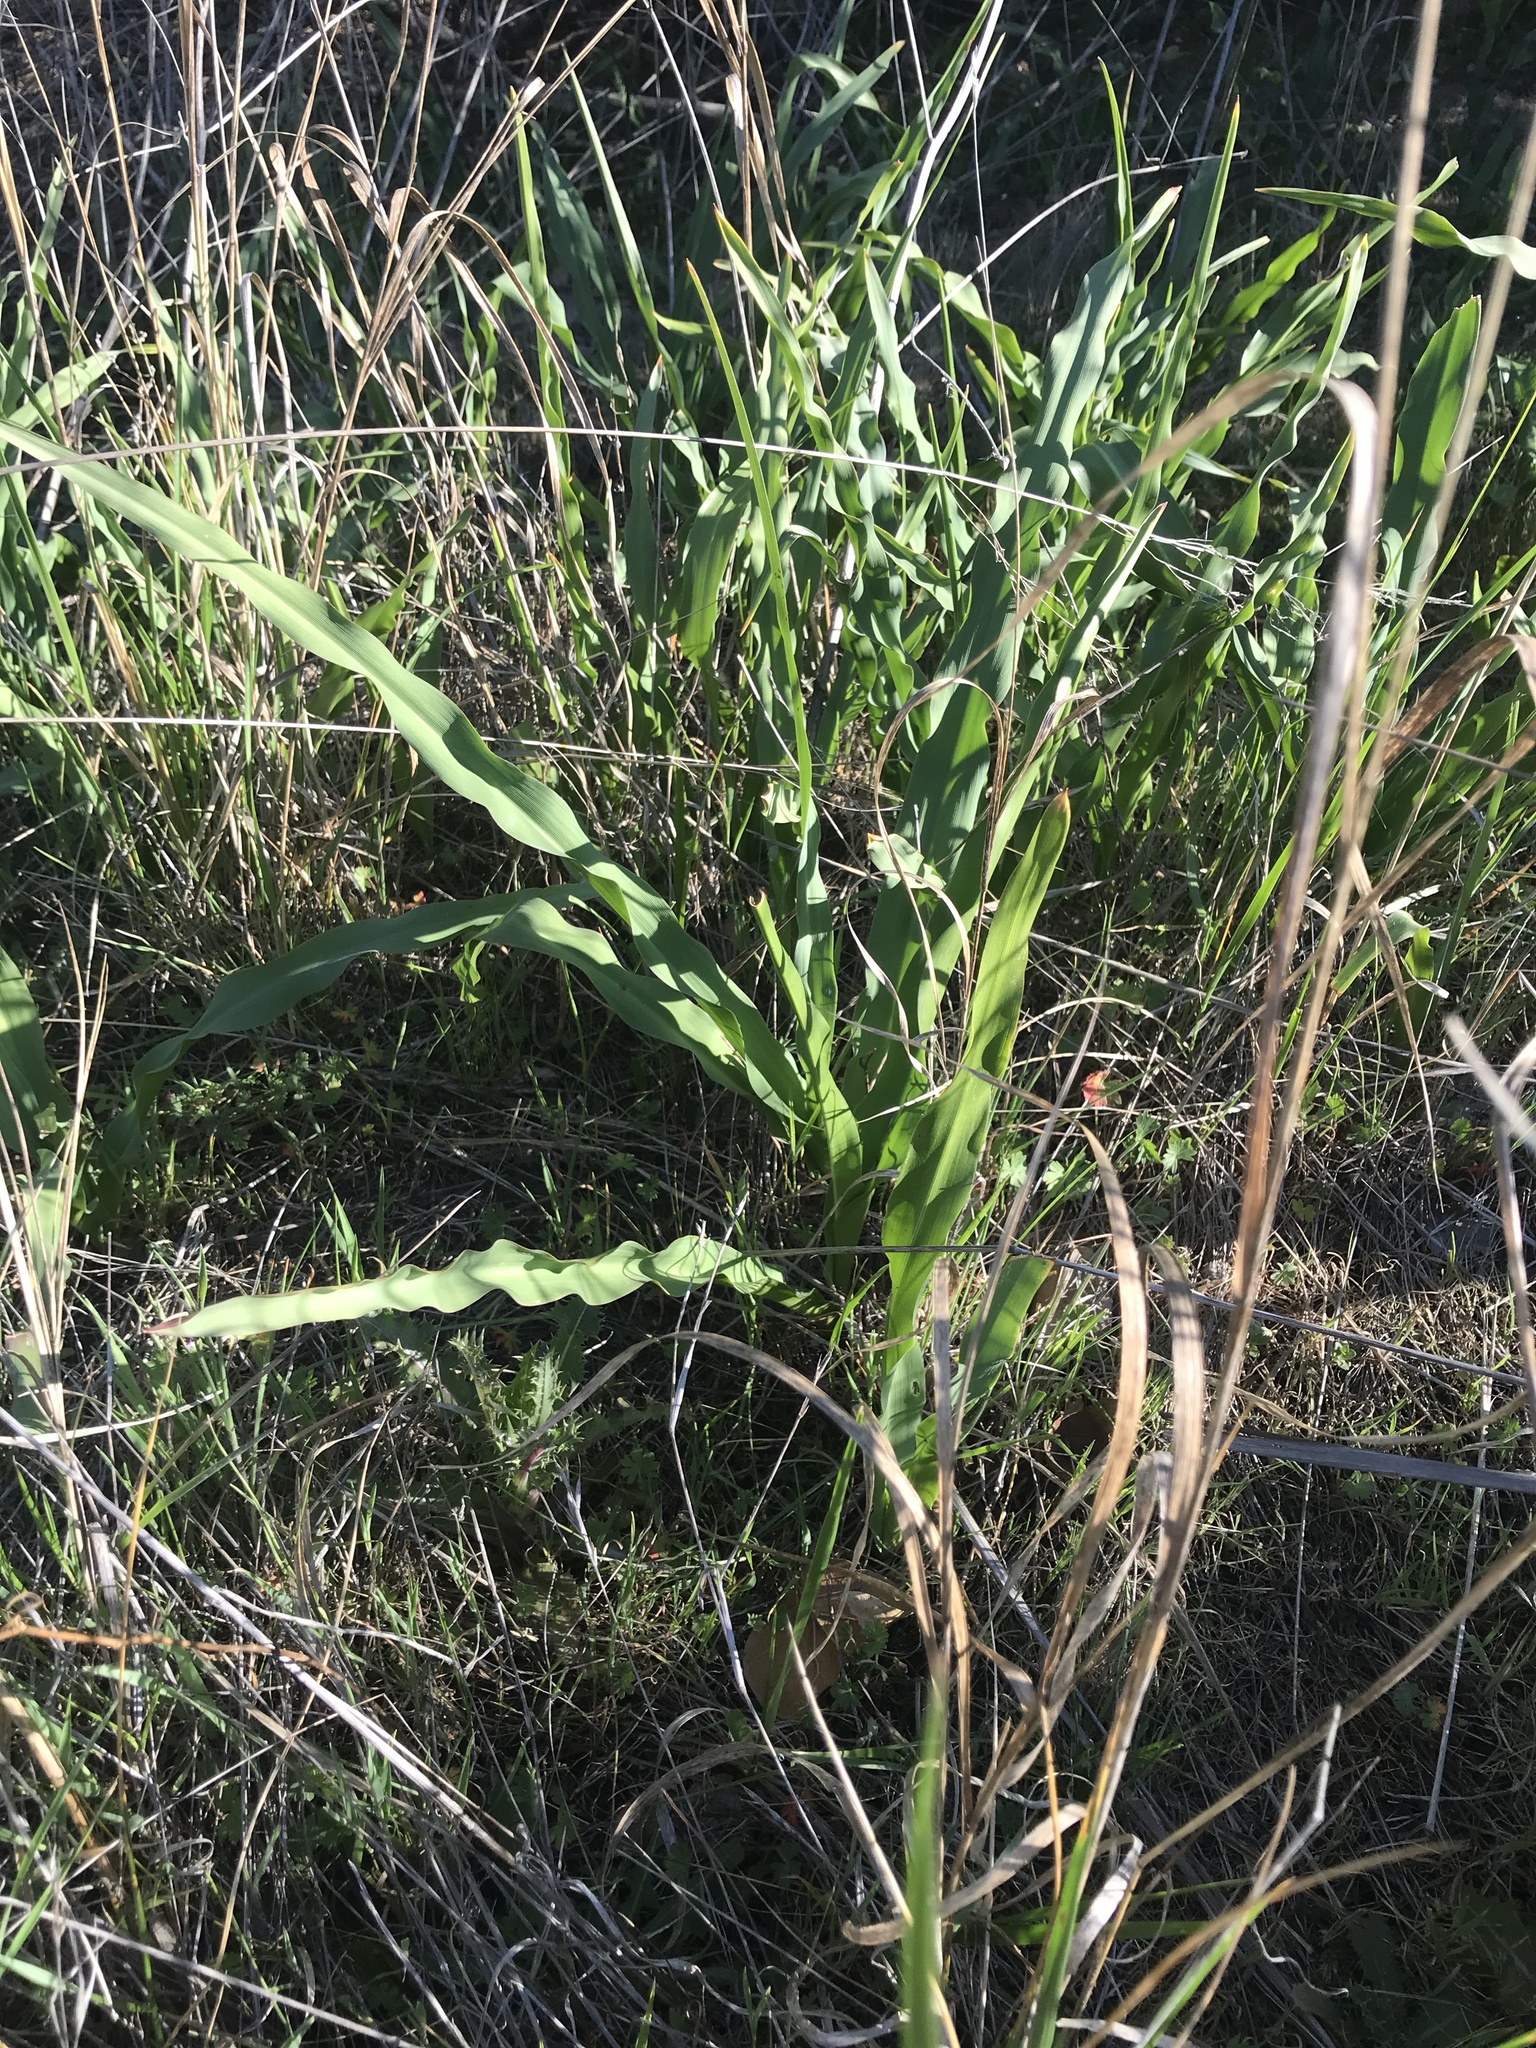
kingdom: Plantae
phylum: Tracheophyta
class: Liliopsida
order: Asparagales
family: Asparagaceae
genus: Chlorogalum
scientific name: Chlorogalum pomeridianum
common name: Amole
